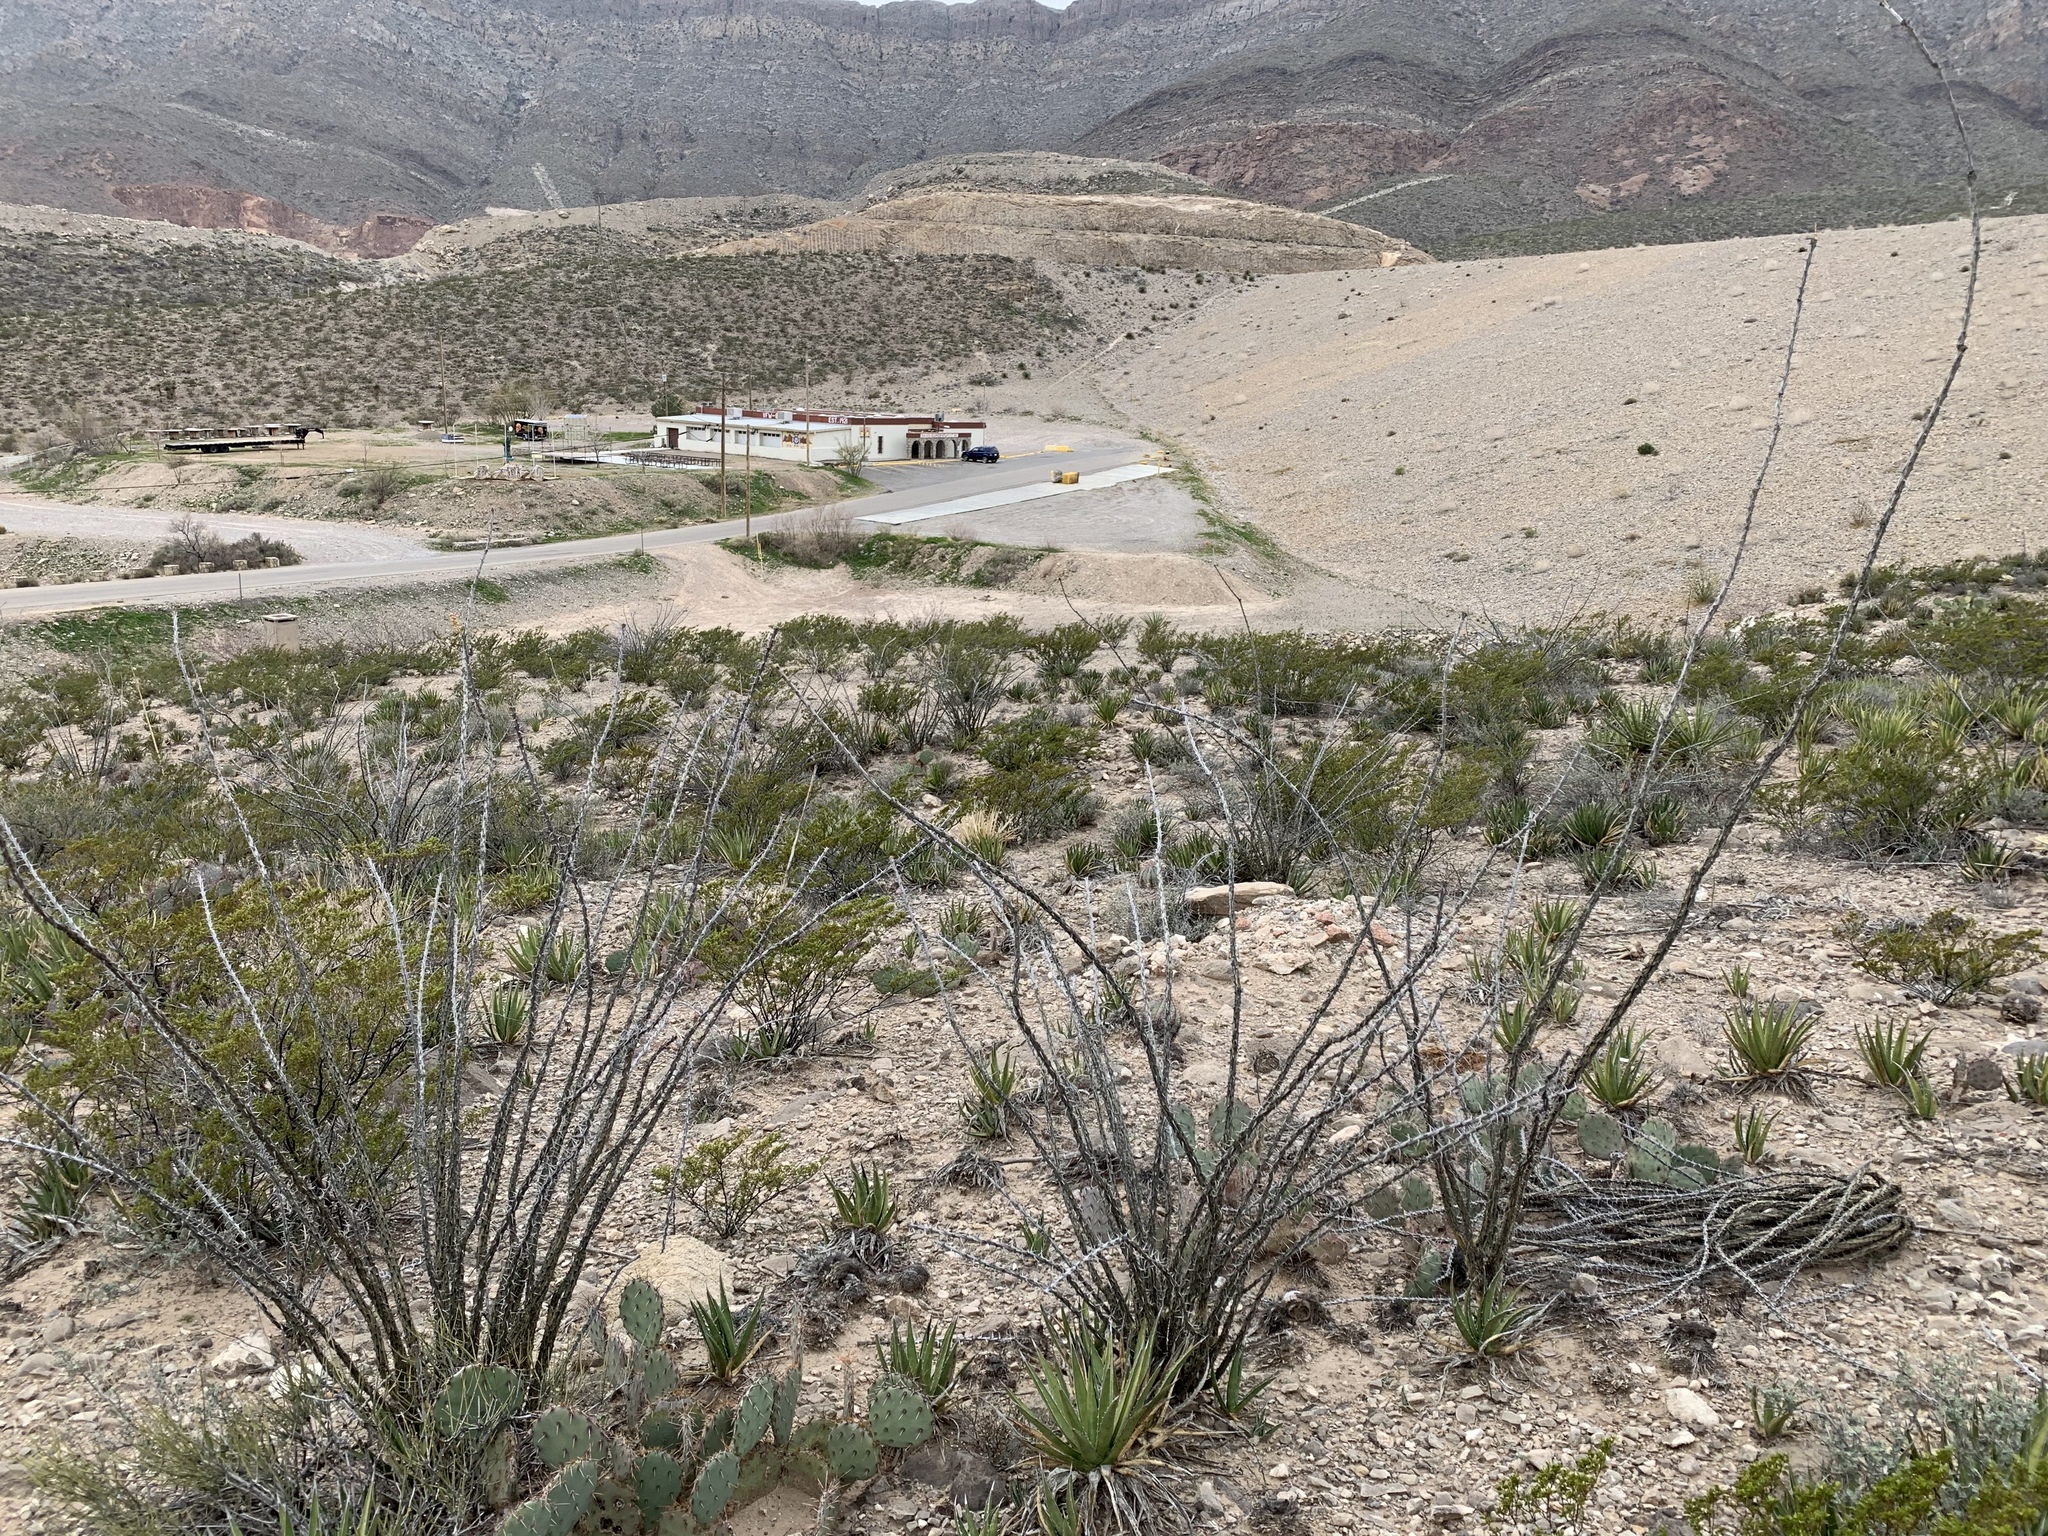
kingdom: Plantae
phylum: Tracheophyta
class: Magnoliopsida
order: Ericales
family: Fouquieriaceae
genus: Fouquieria
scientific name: Fouquieria splendens
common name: Vine-cactus
